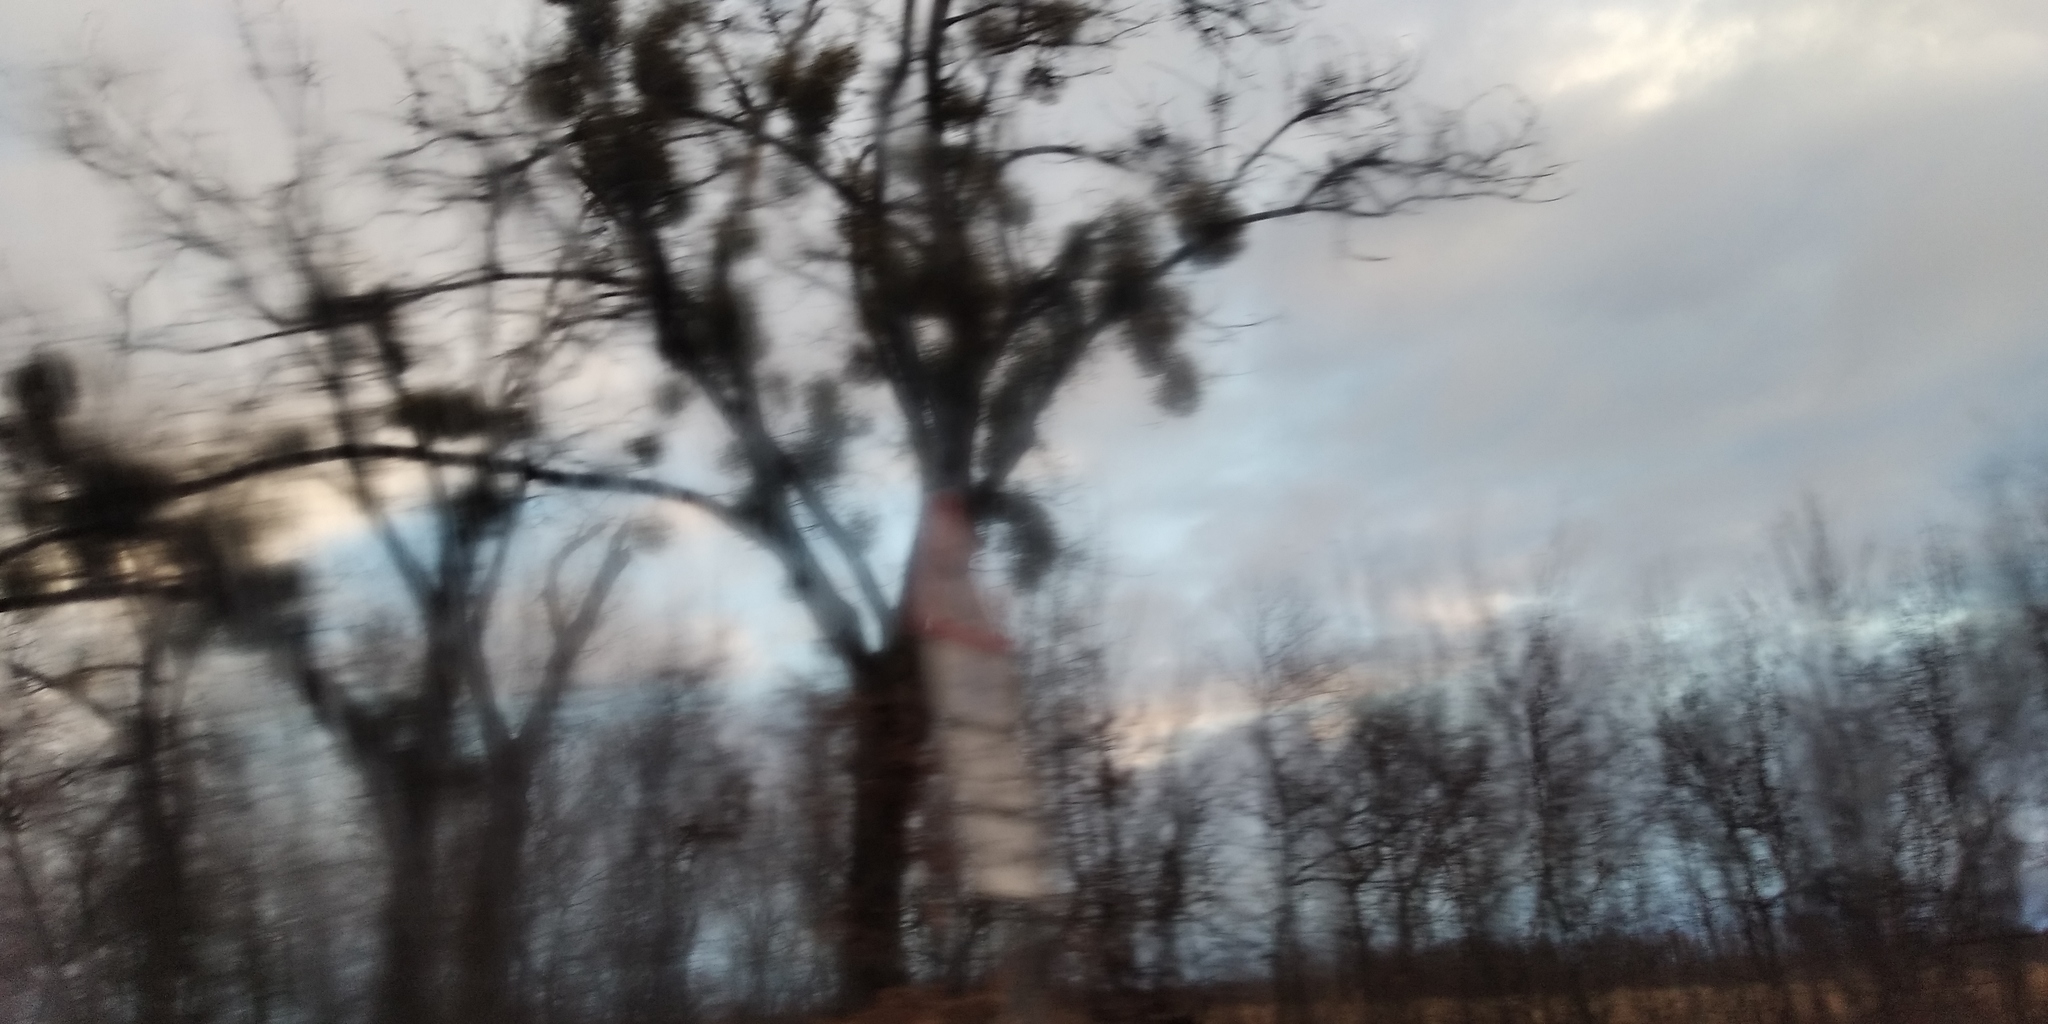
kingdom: Plantae
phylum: Tracheophyta
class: Magnoliopsida
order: Santalales
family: Viscaceae
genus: Viscum
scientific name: Viscum album
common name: Mistletoe
